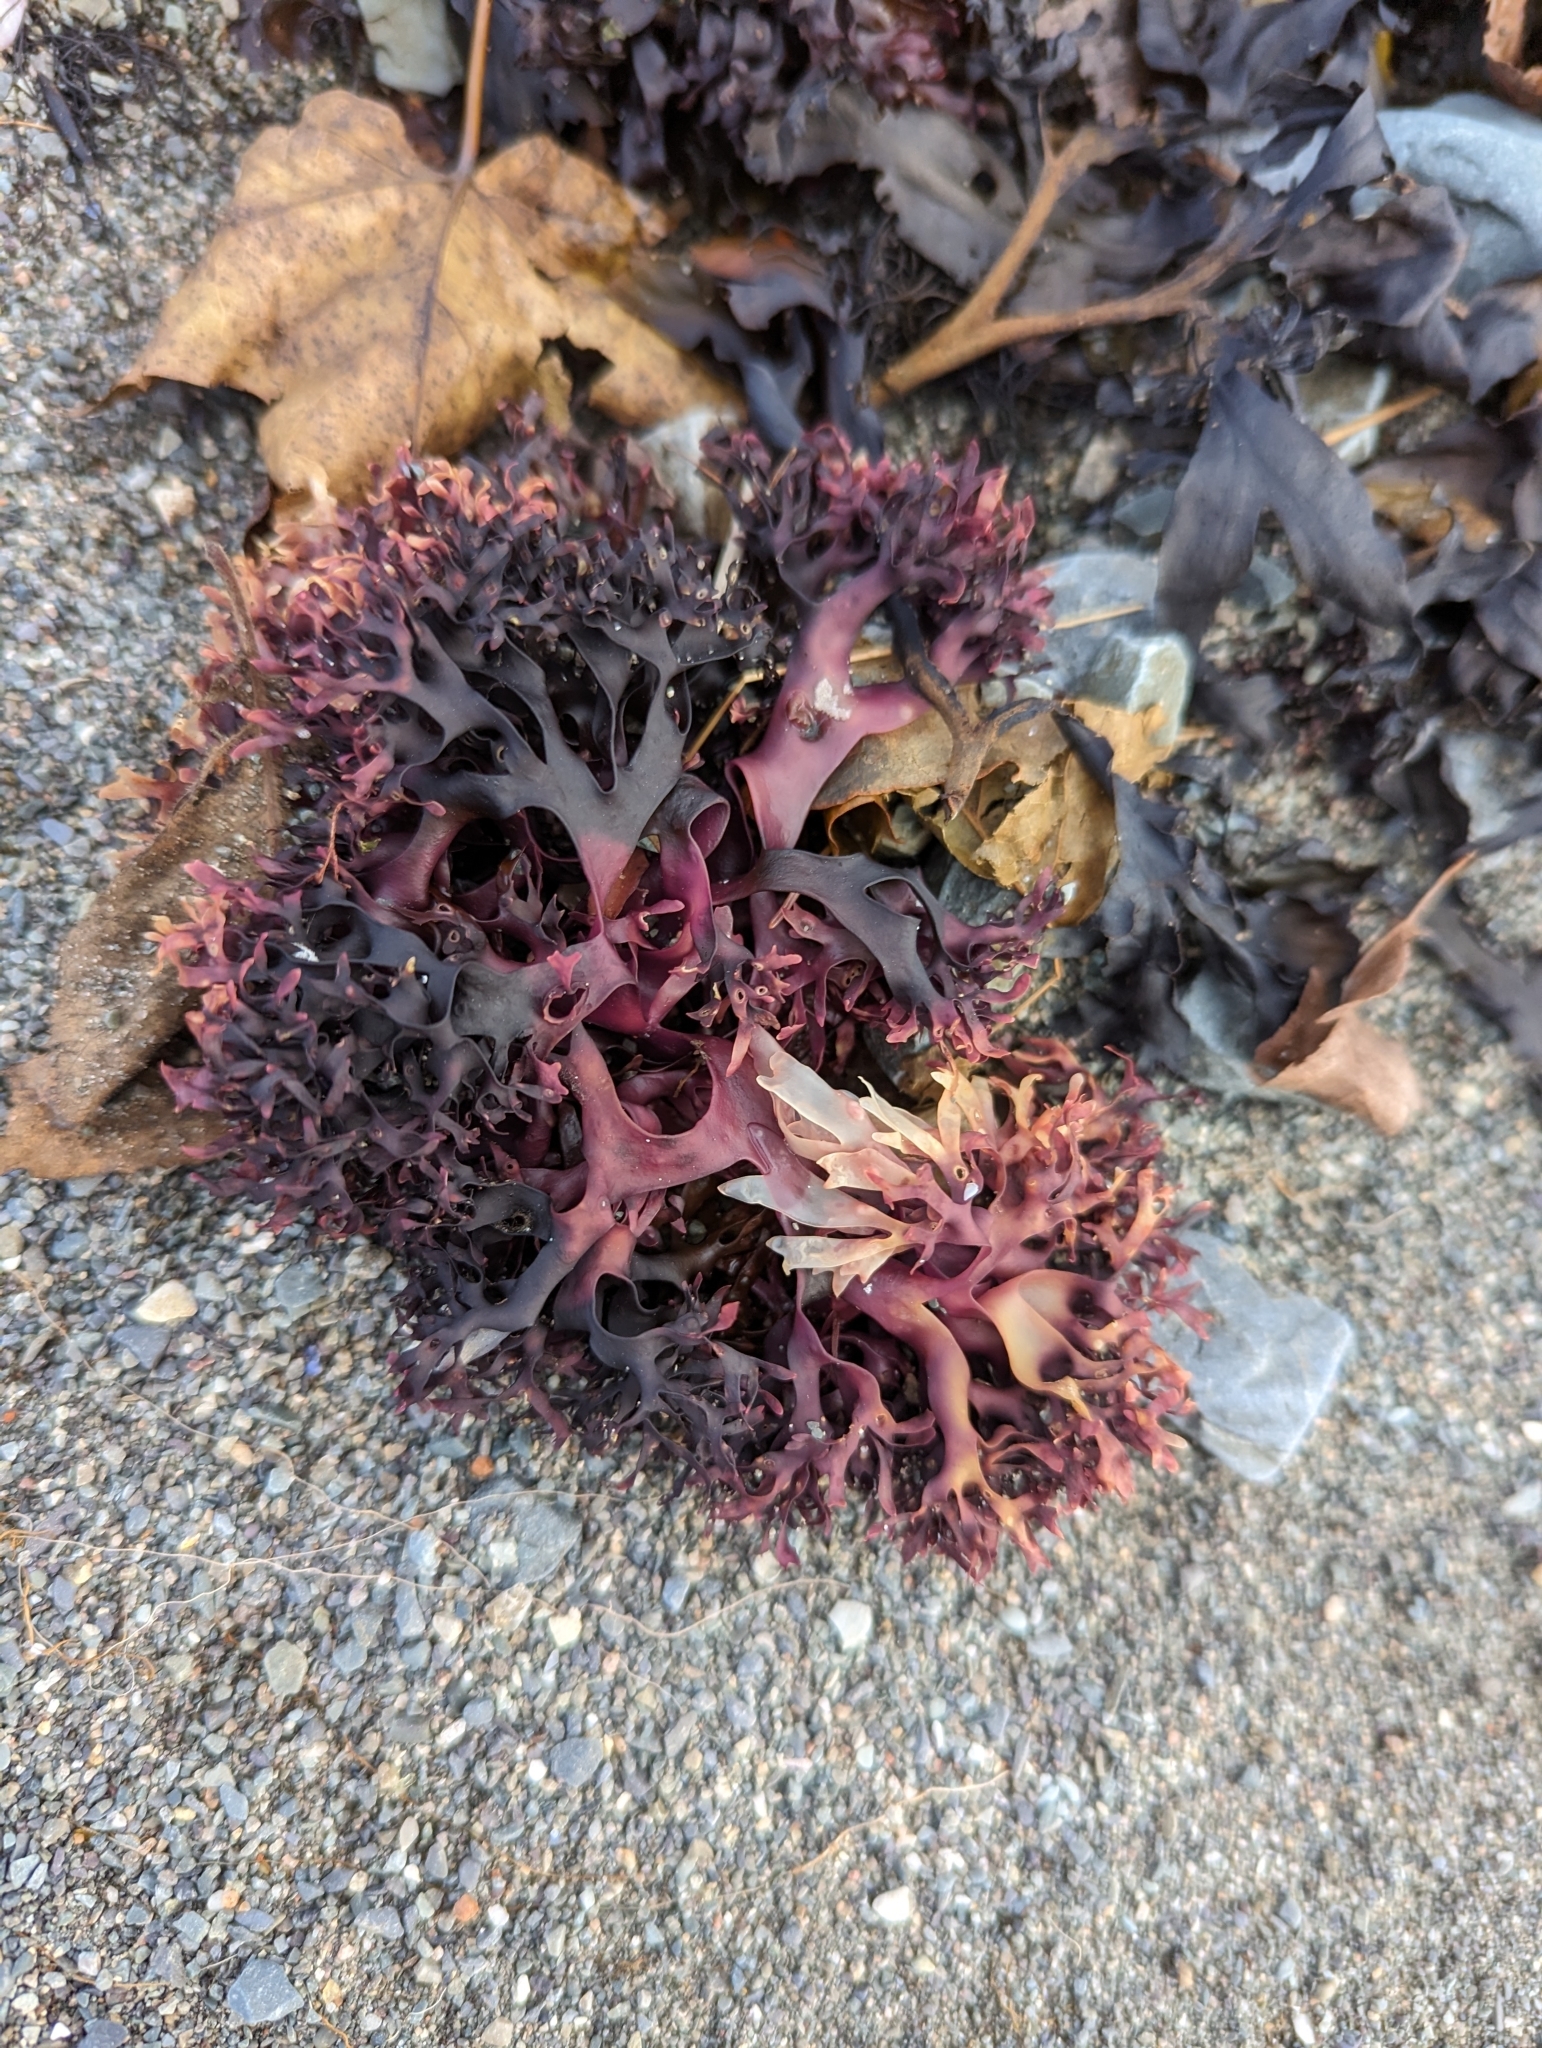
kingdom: Plantae
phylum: Rhodophyta
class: Florideophyceae
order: Gigartinales
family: Gigartinaceae
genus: Chondrus
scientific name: Chondrus crispus
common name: Carrageen
